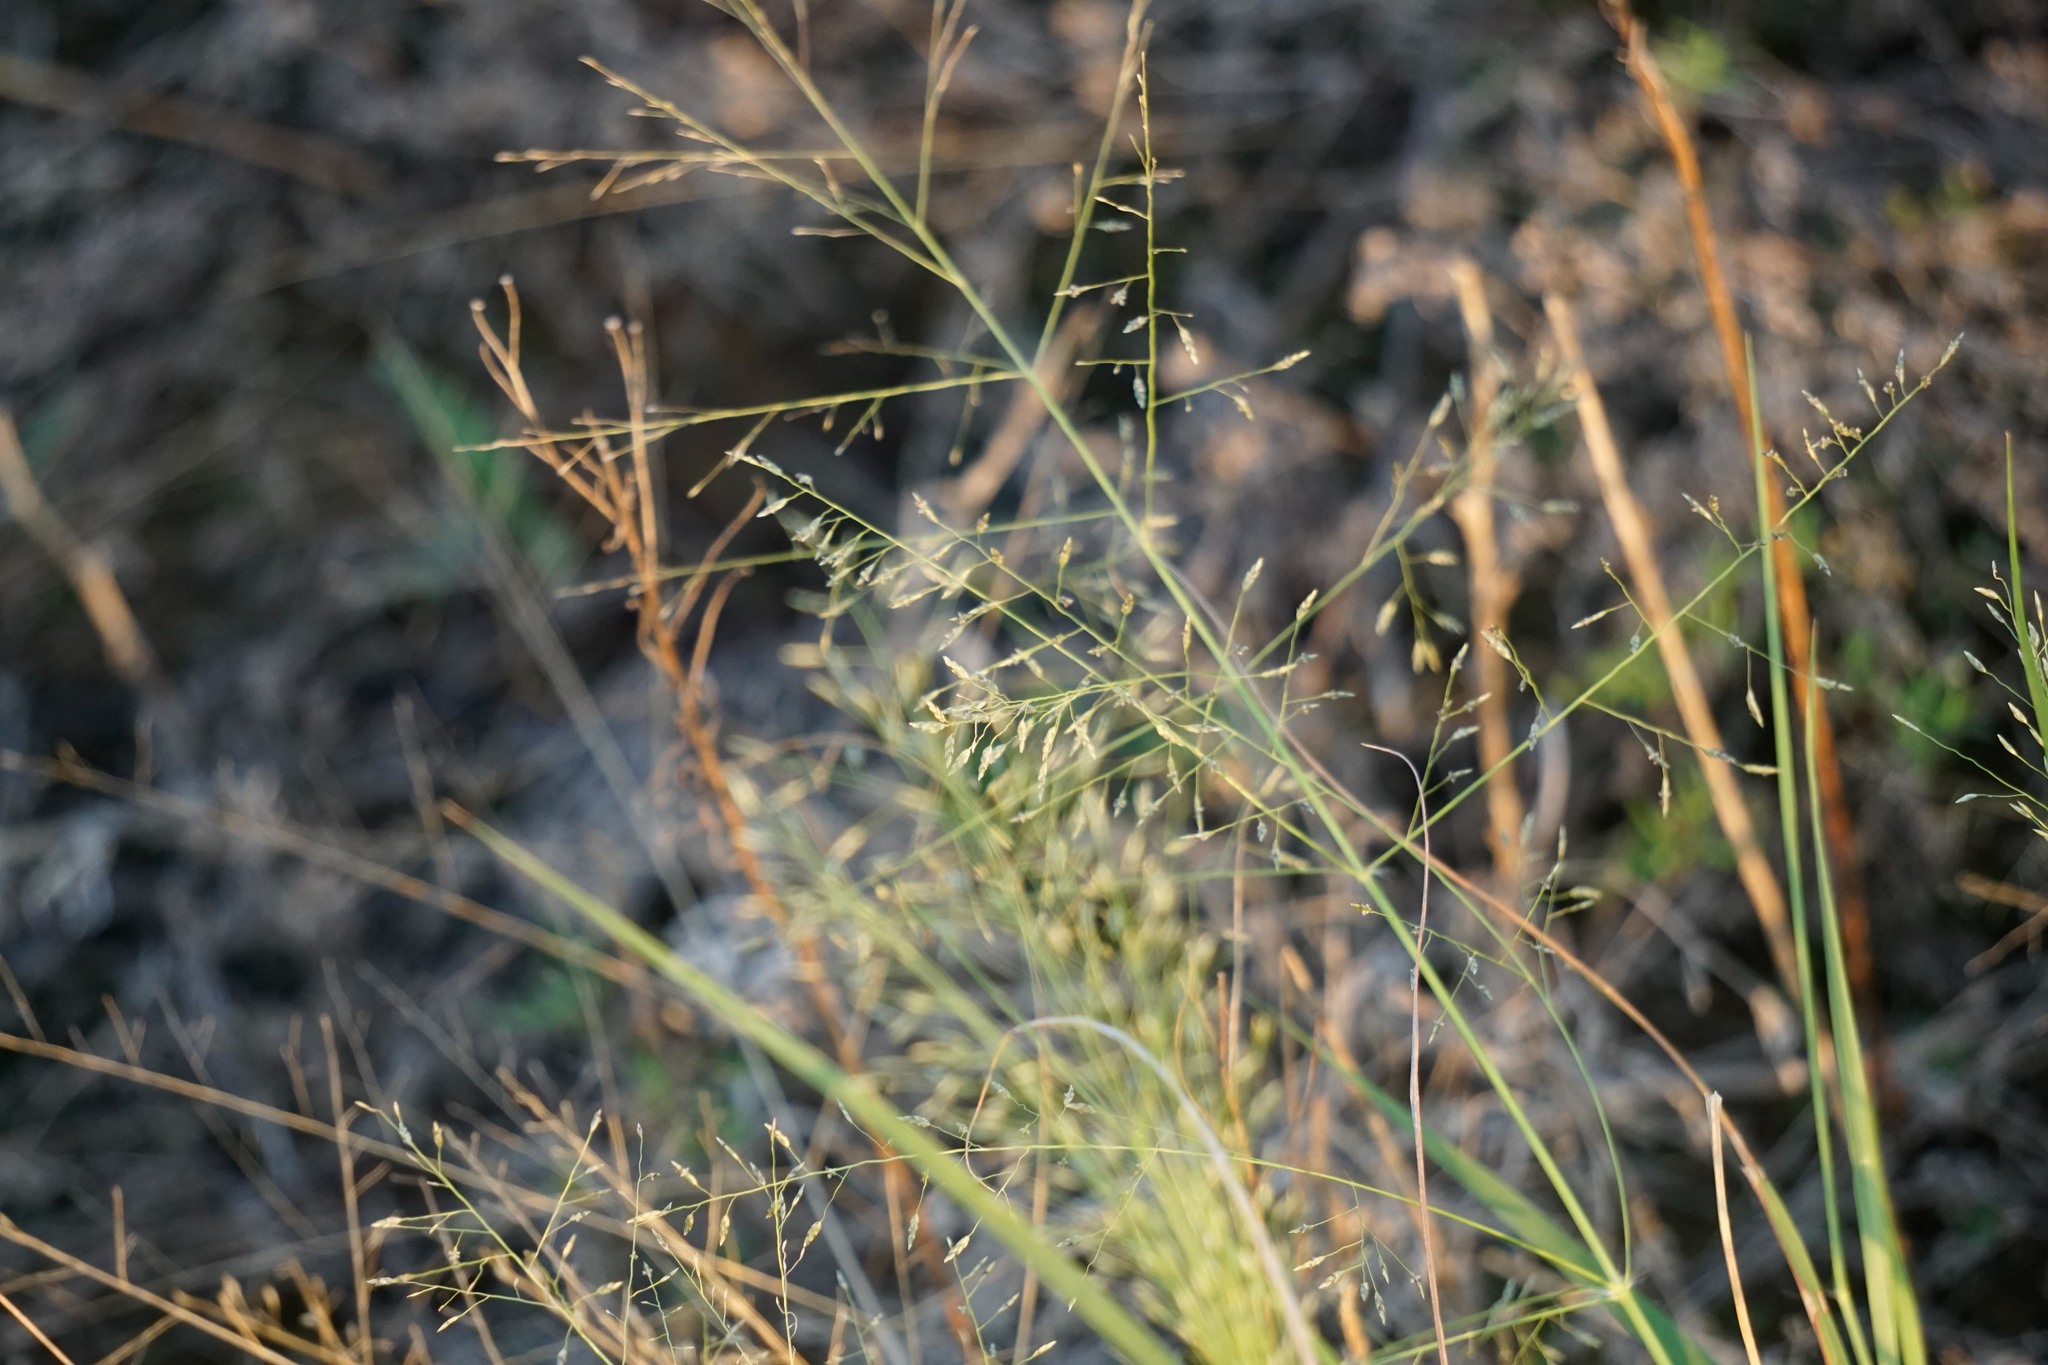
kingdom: Plantae
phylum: Tracheophyta
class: Liliopsida
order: Poales
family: Poaceae
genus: Eragrostis
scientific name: Eragrostis spectabilis
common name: Petticoat-climber
